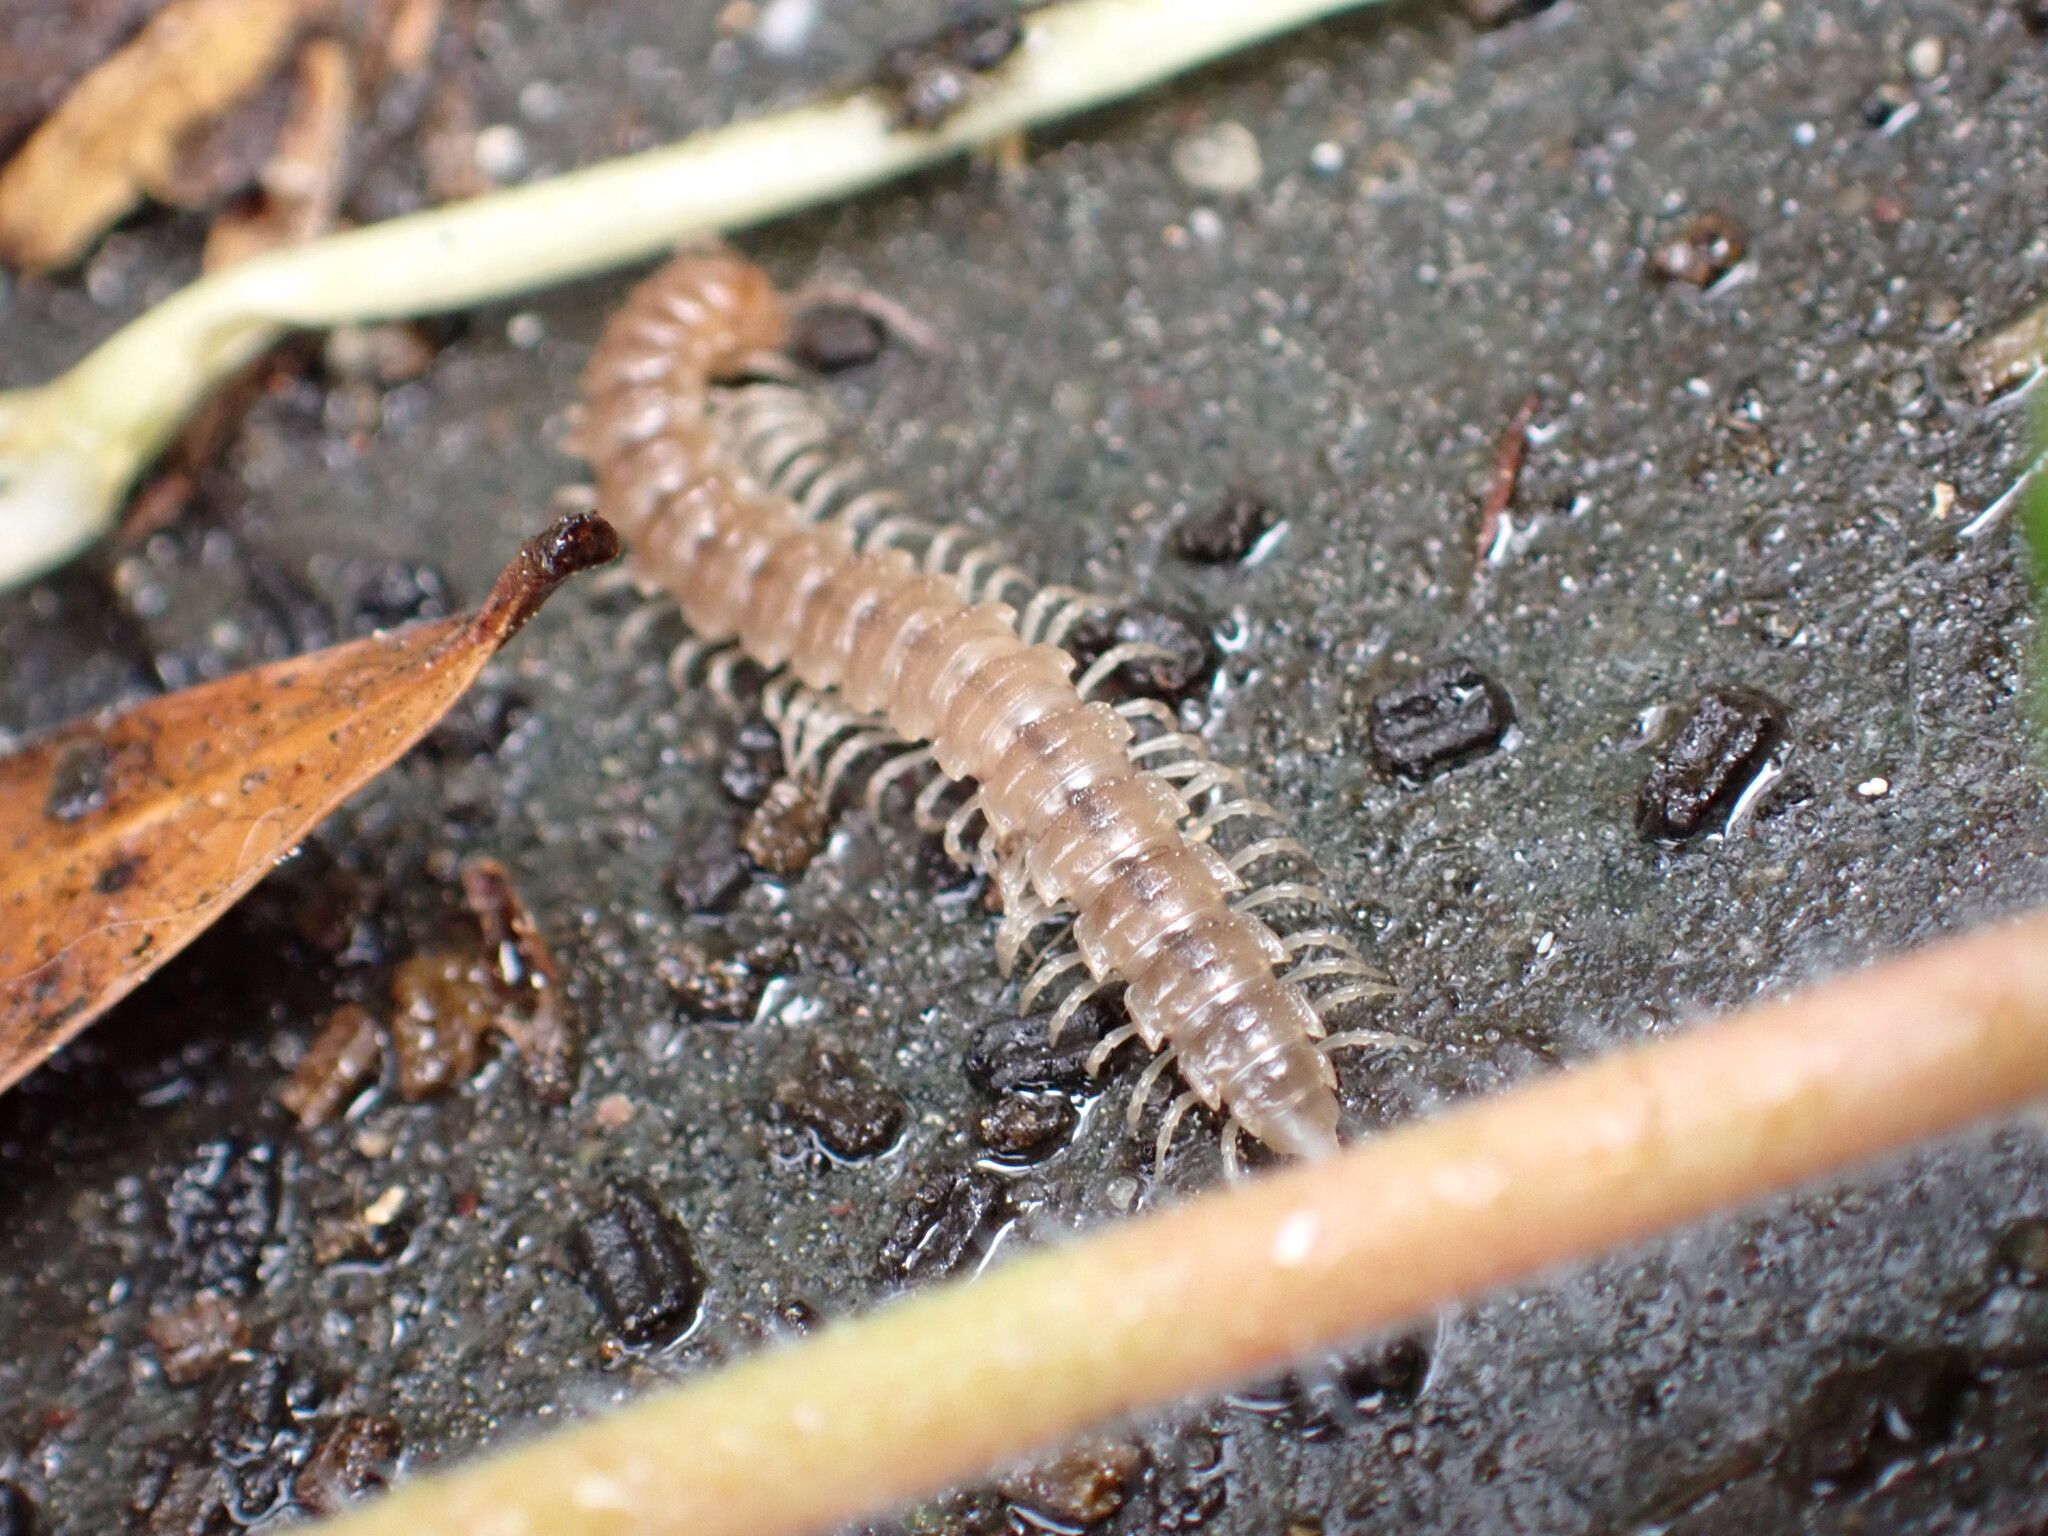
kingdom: Animalia
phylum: Arthropoda
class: Diplopoda
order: Polydesmida
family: Paradoxosomatidae
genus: Oxidus
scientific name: Oxidus gracilis
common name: Greenhouse millipede
